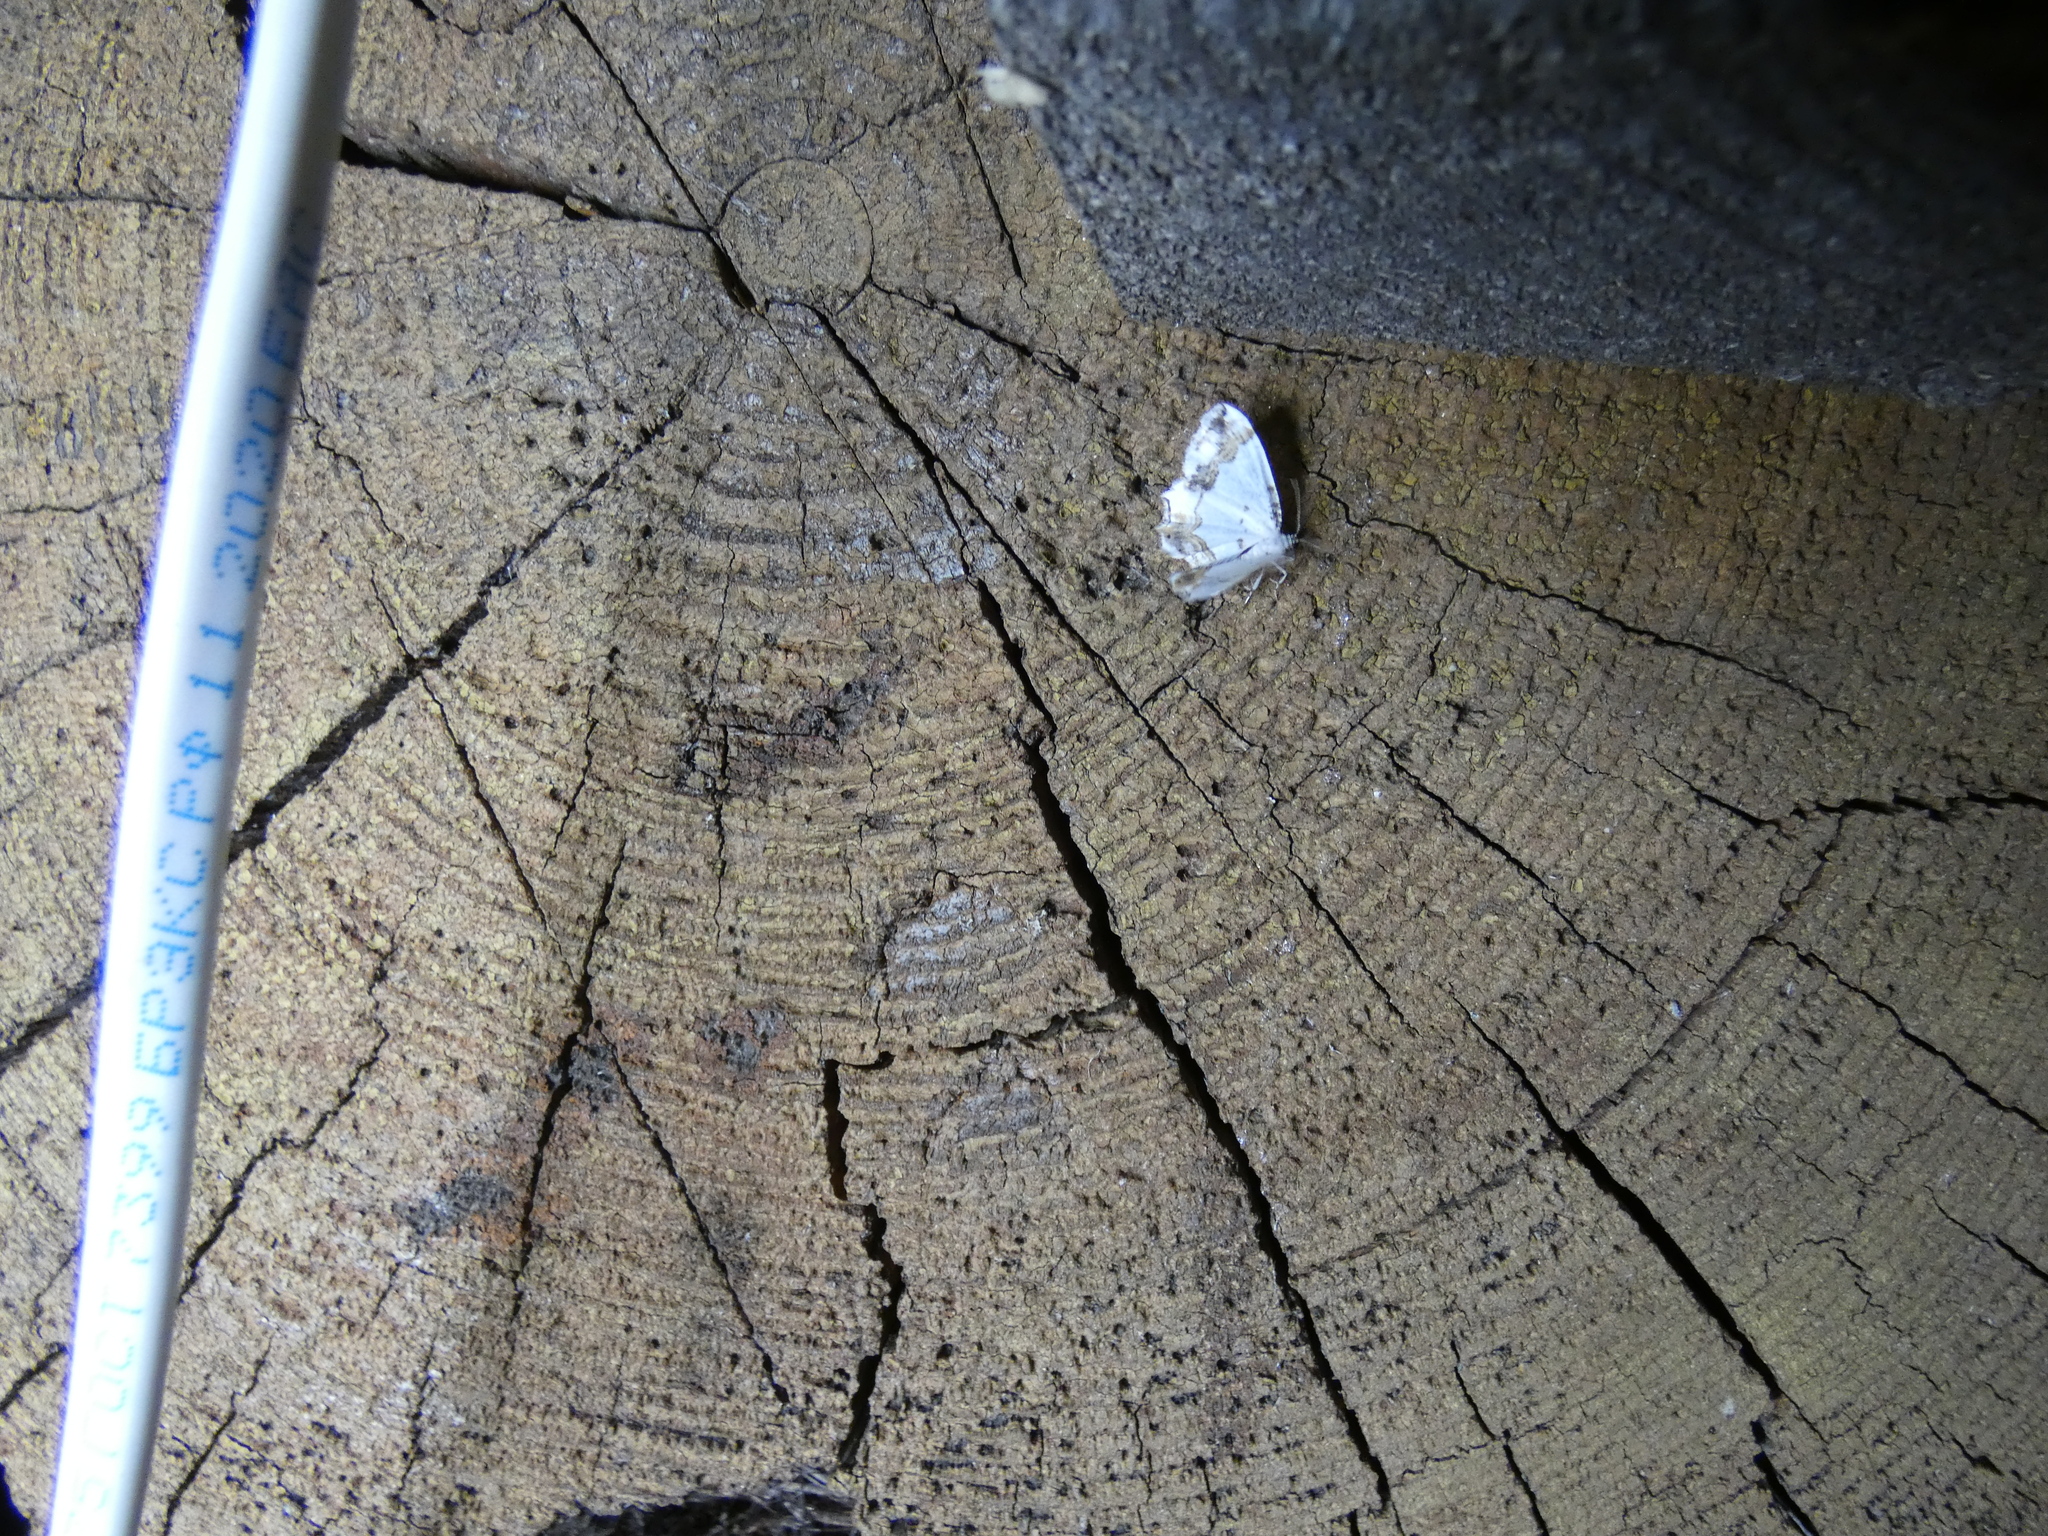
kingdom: Animalia
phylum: Arthropoda
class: Insecta
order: Lepidoptera
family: Uraniidae
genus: Epiplema
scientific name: Epiplema Eversmannia exornata
